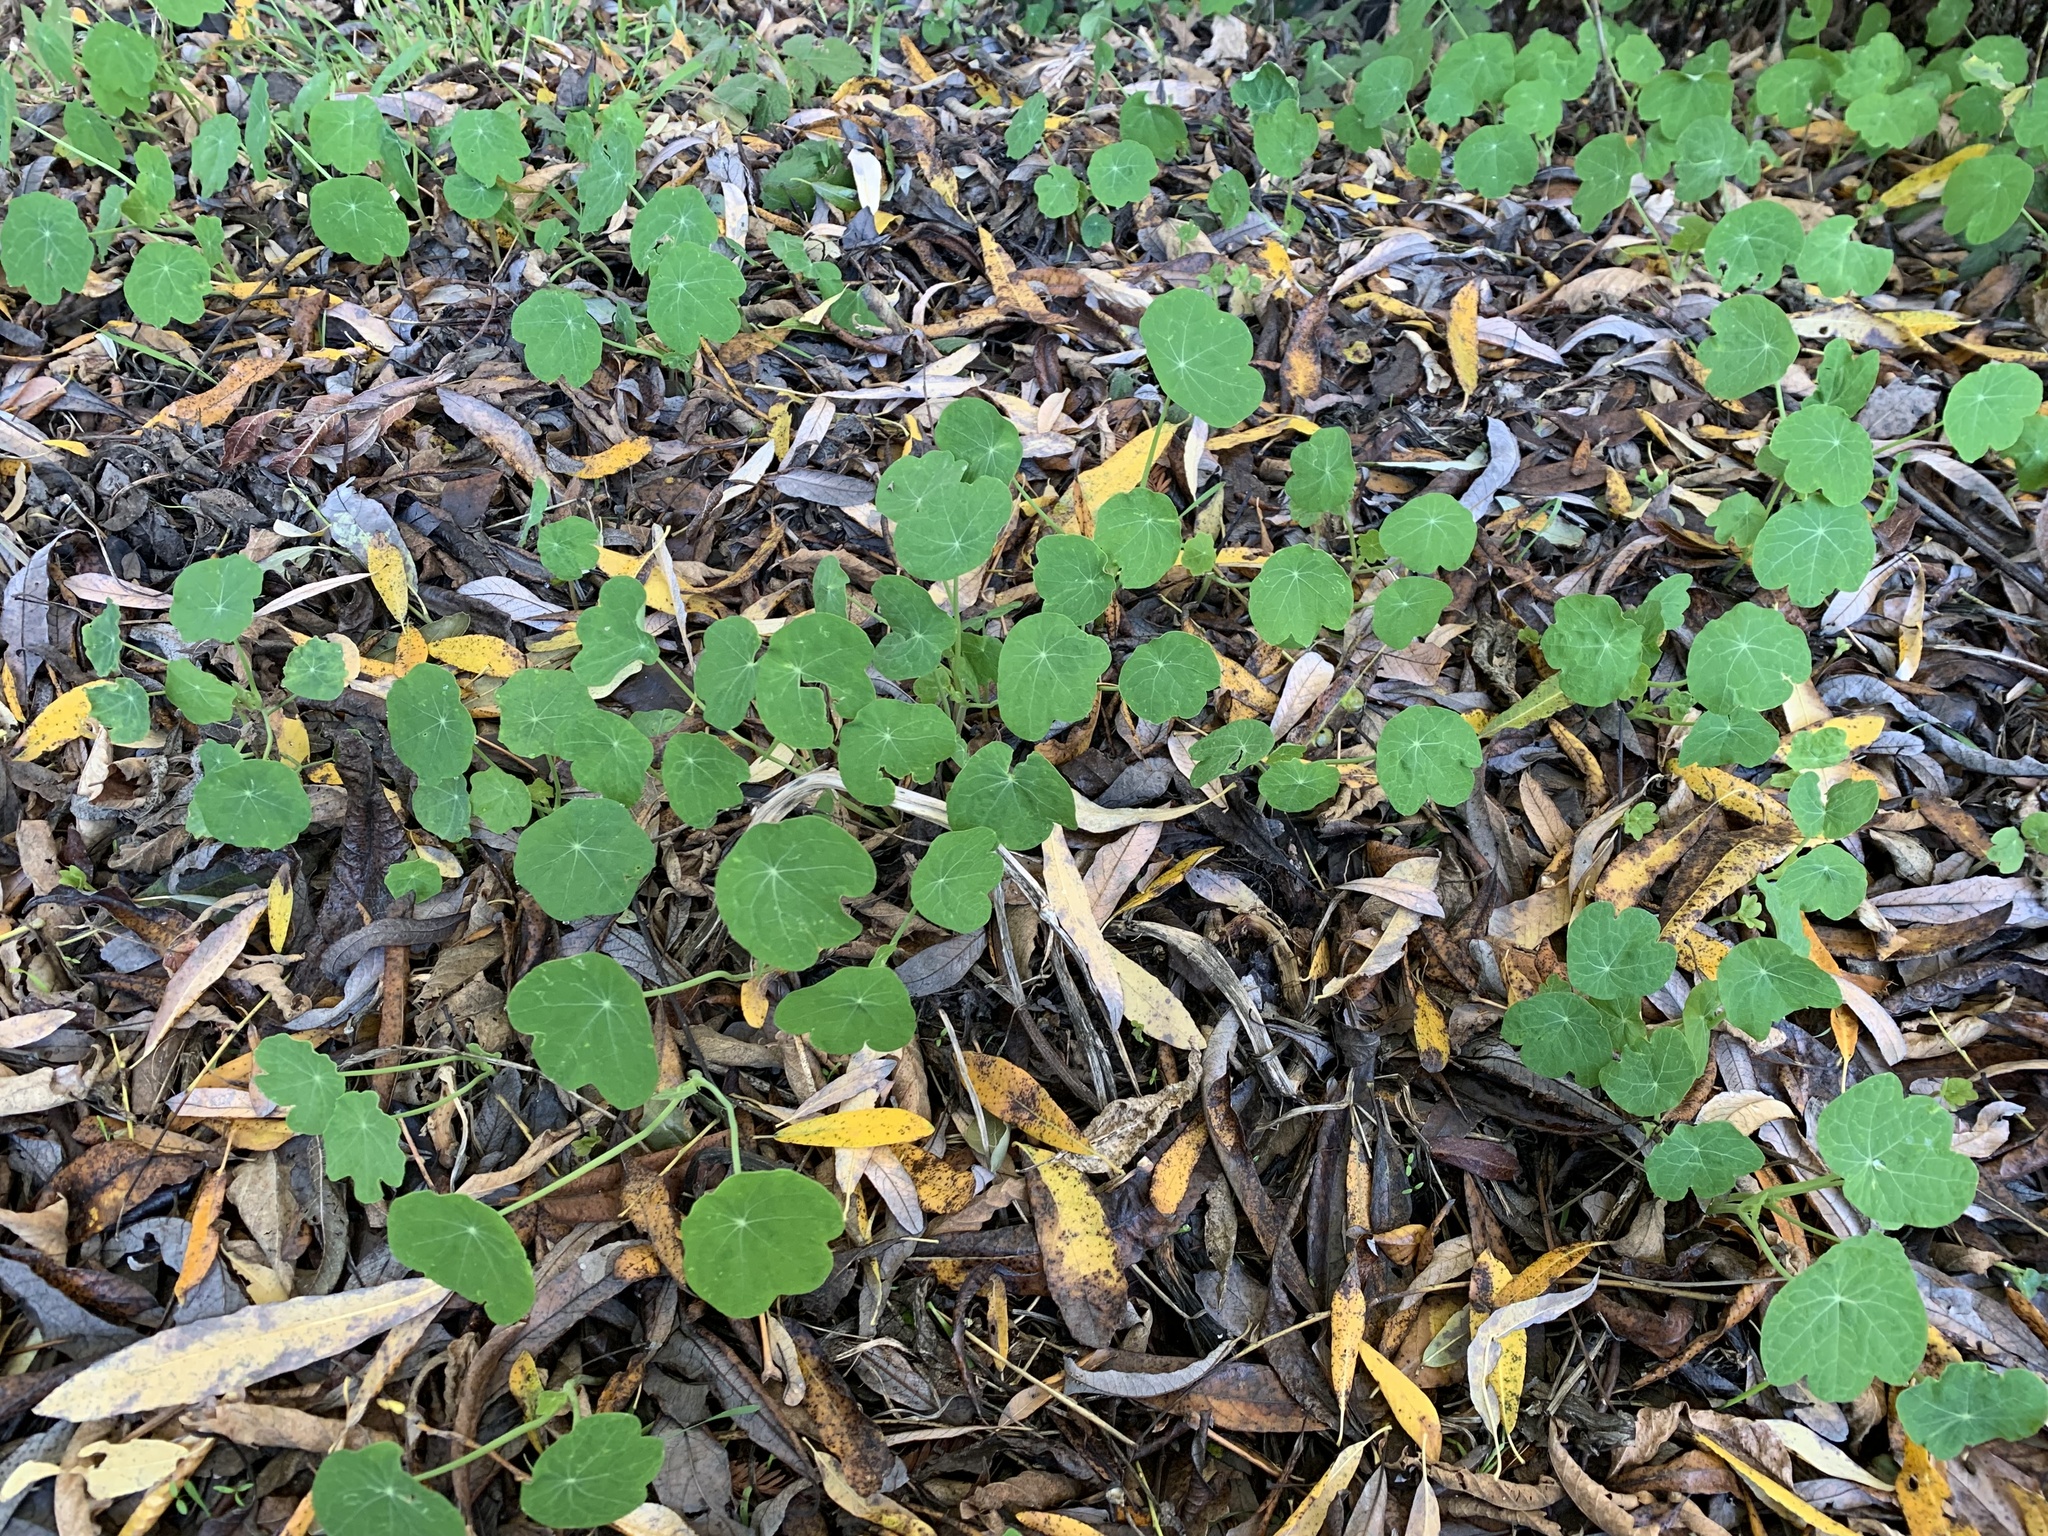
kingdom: Plantae
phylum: Tracheophyta
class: Magnoliopsida
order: Brassicales
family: Tropaeolaceae
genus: Tropaeolum
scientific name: Tropaeolum majus
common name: Nasturtium
